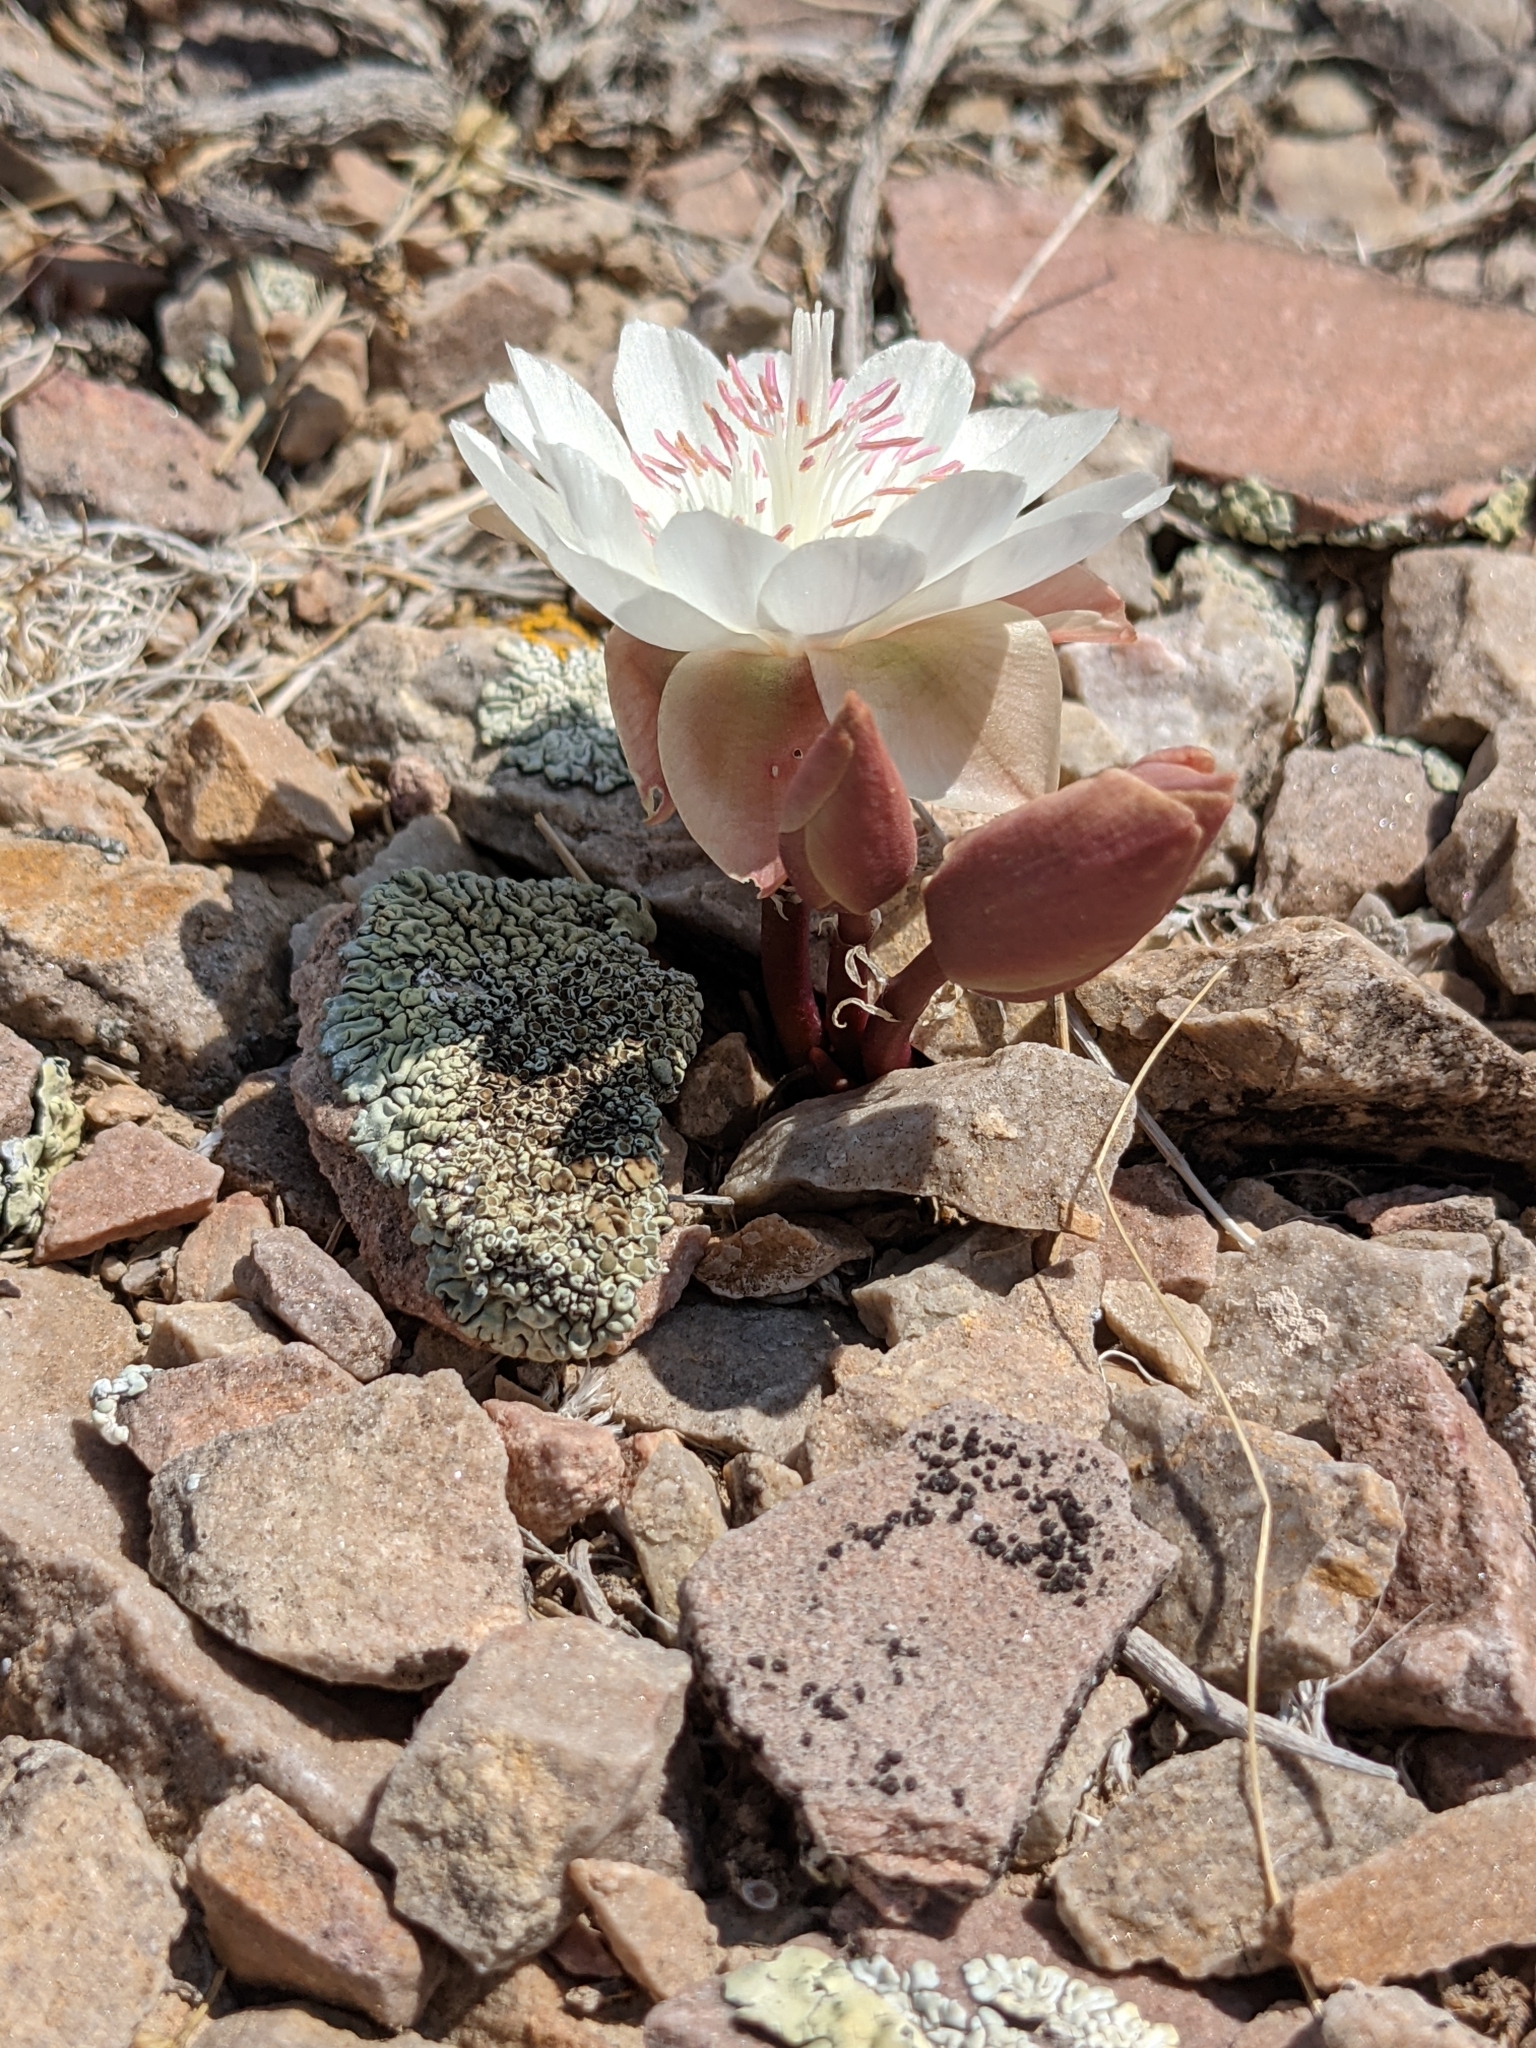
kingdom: Plantae
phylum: Tracheophyta
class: Magnoliopsida
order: Caryophyllales
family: Montiaceae
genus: Lewisia
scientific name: Lewisia rediviva
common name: Bitter-root
